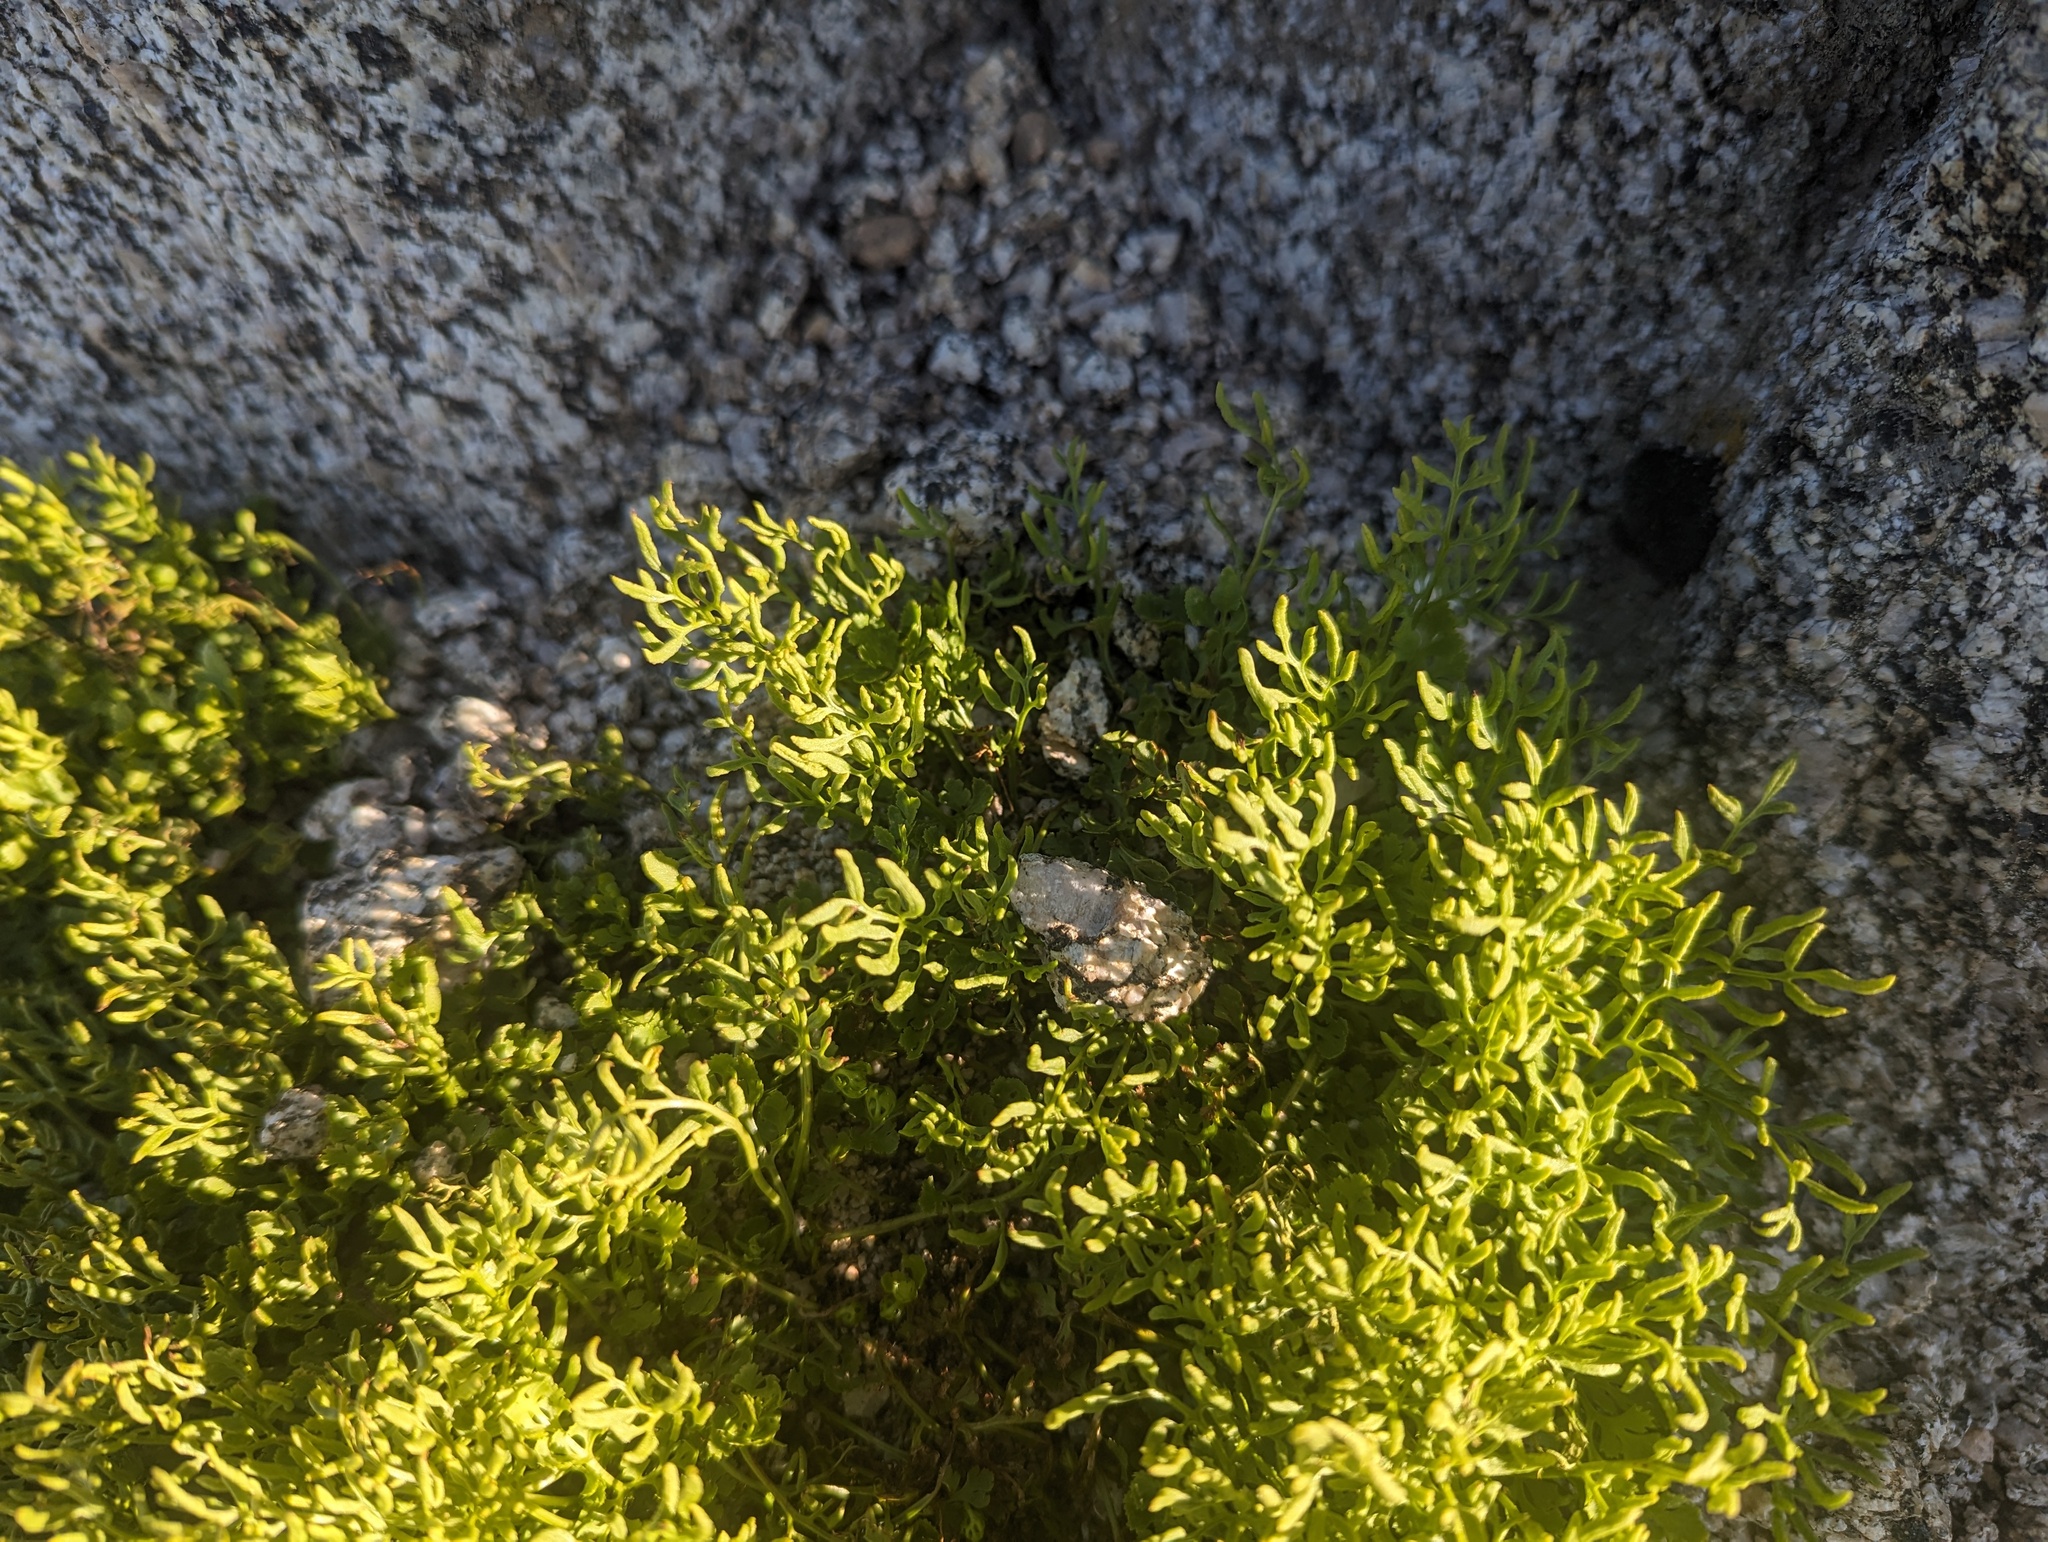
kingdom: Plantae
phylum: Tracheophyta
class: Polypodiopsida
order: Polypodiales
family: Pteridaceae
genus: Cryptogramma
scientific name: Cryptogramma cascadensis
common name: Cascade parsley fern
